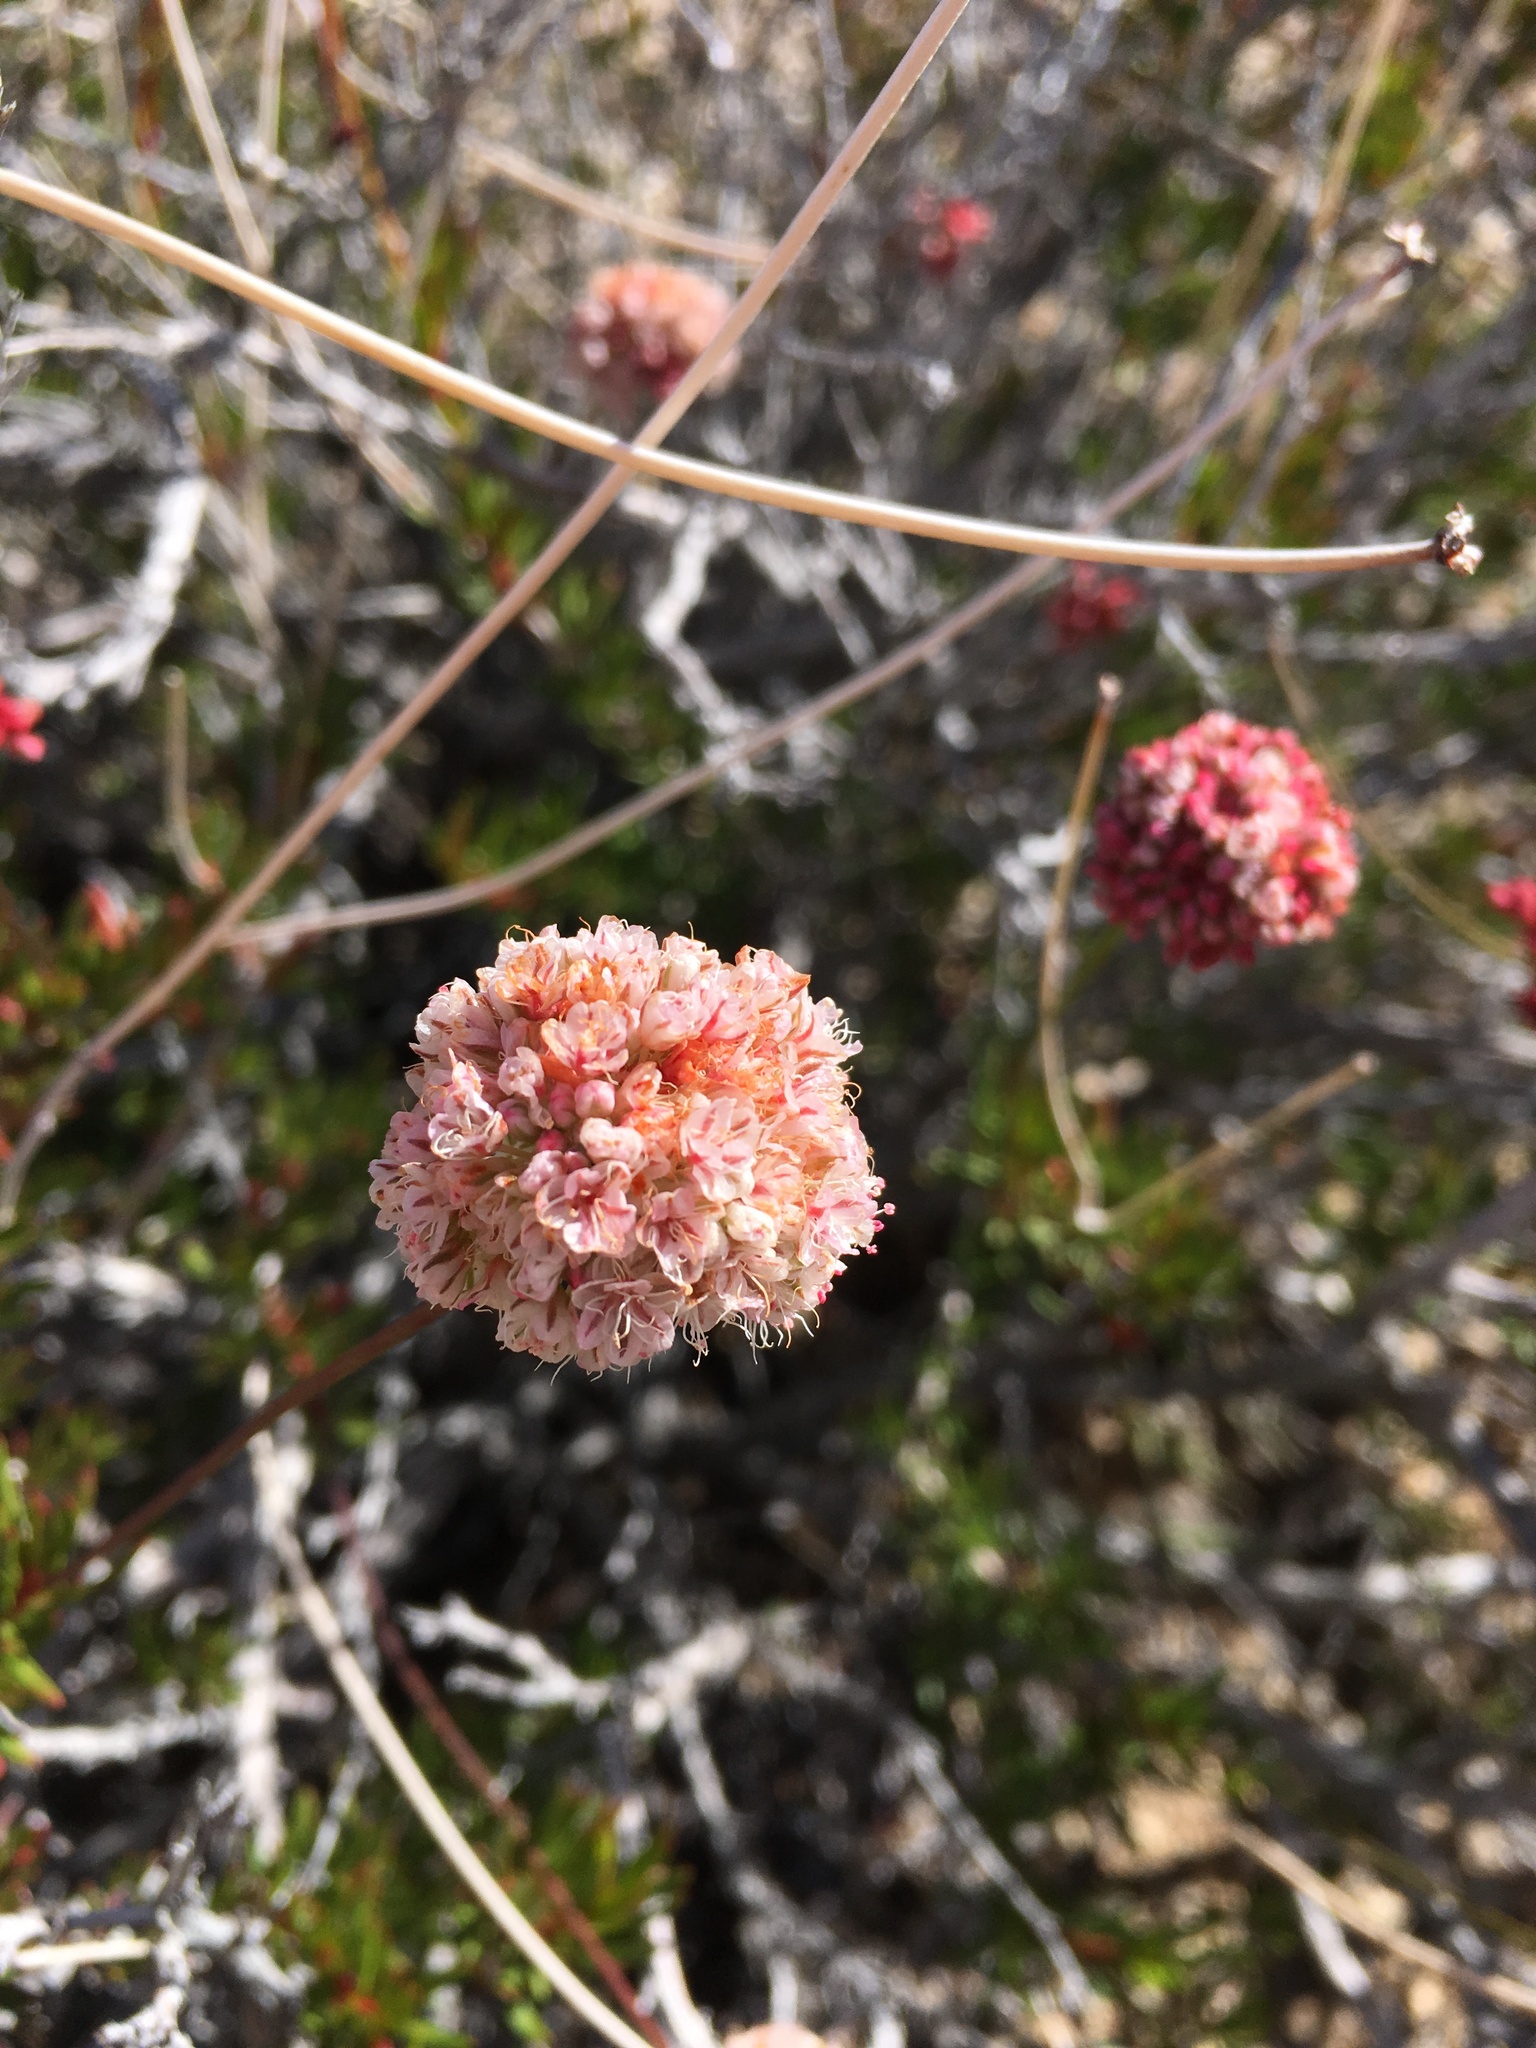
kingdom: Plantae
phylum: Tracheophyta
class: Magnoliopsida
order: Caryophyllales
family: Polygonaceae
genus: Eriogonum
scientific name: Eriogonum fasciculatum
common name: California wild buckwheat
